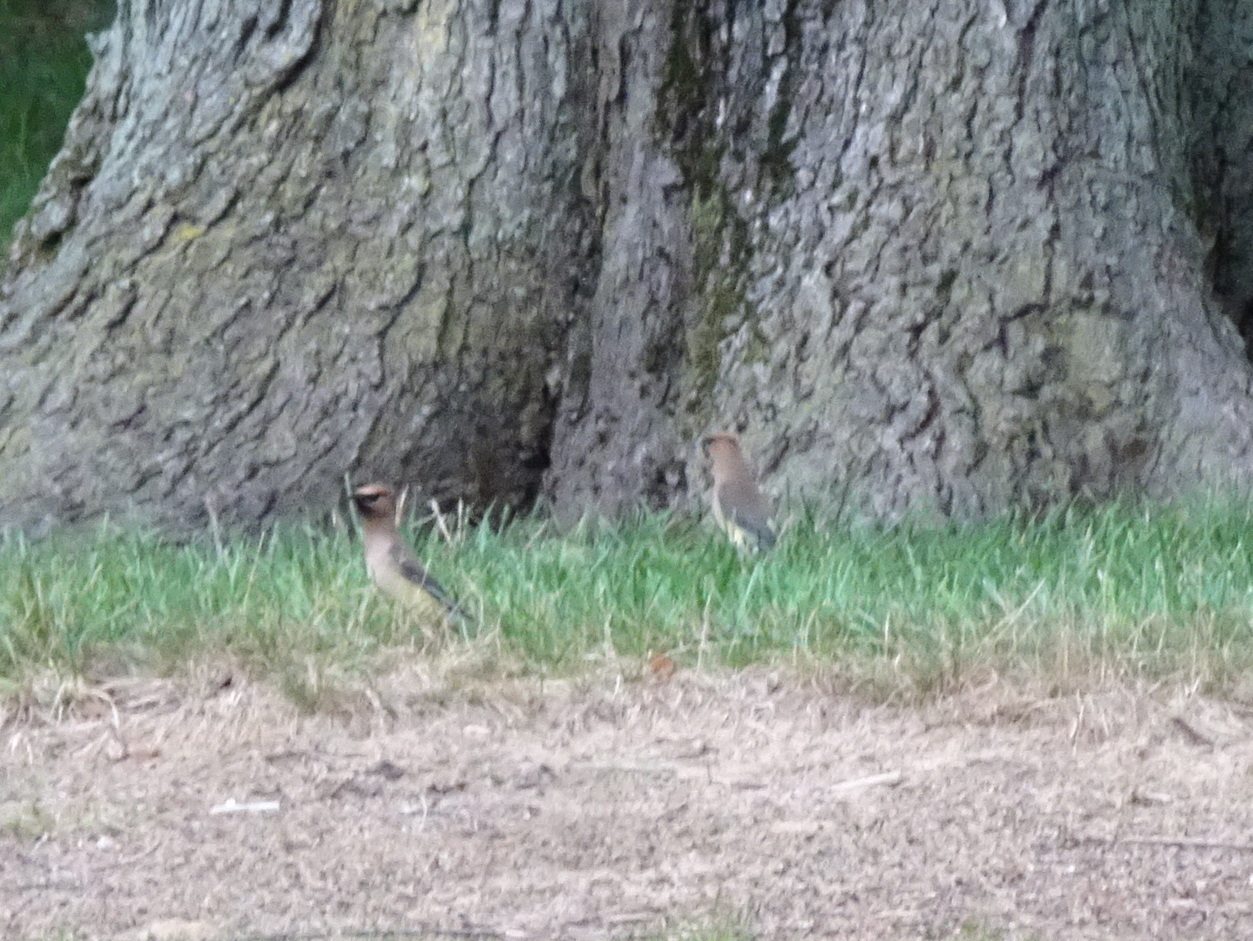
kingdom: Animalia
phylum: Chordata
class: Aves
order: Passeriformes
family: Bombycillidae
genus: Bombycilla
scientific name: Bombycilla cedrorum
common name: Cedar waxwing
